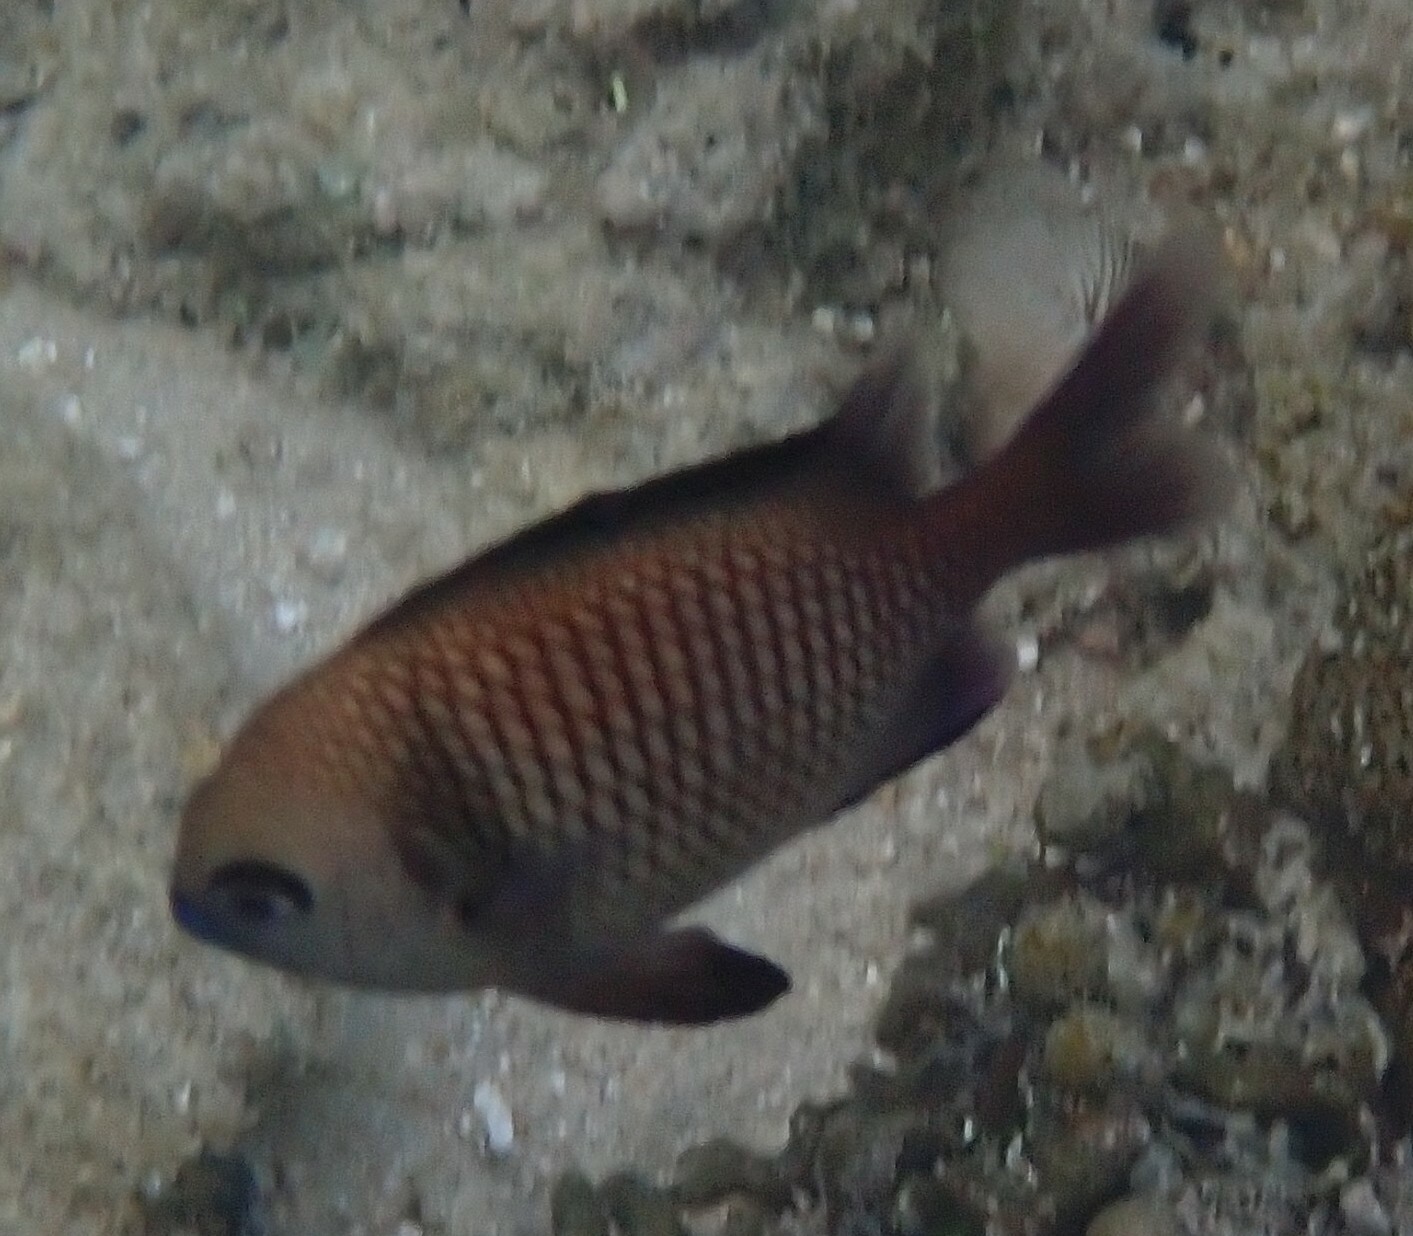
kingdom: Animalia
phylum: Chordata
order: Perciformes
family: Pomacentridae
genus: Dascyllus
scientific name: Dascyllus reticulatus
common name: Reticulated dascyllus
